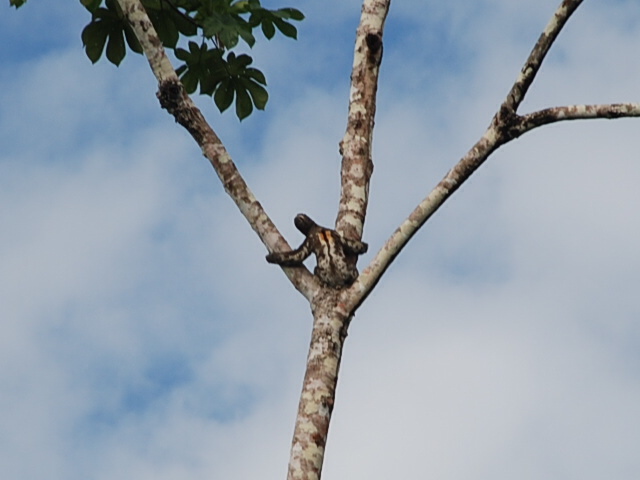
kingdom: Animalia
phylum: Chordata
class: Mammalia
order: Pilosa
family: Bradypodidae
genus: Bradypus
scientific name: Bradypus variegatus
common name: Brown-throated three-toed sloth
